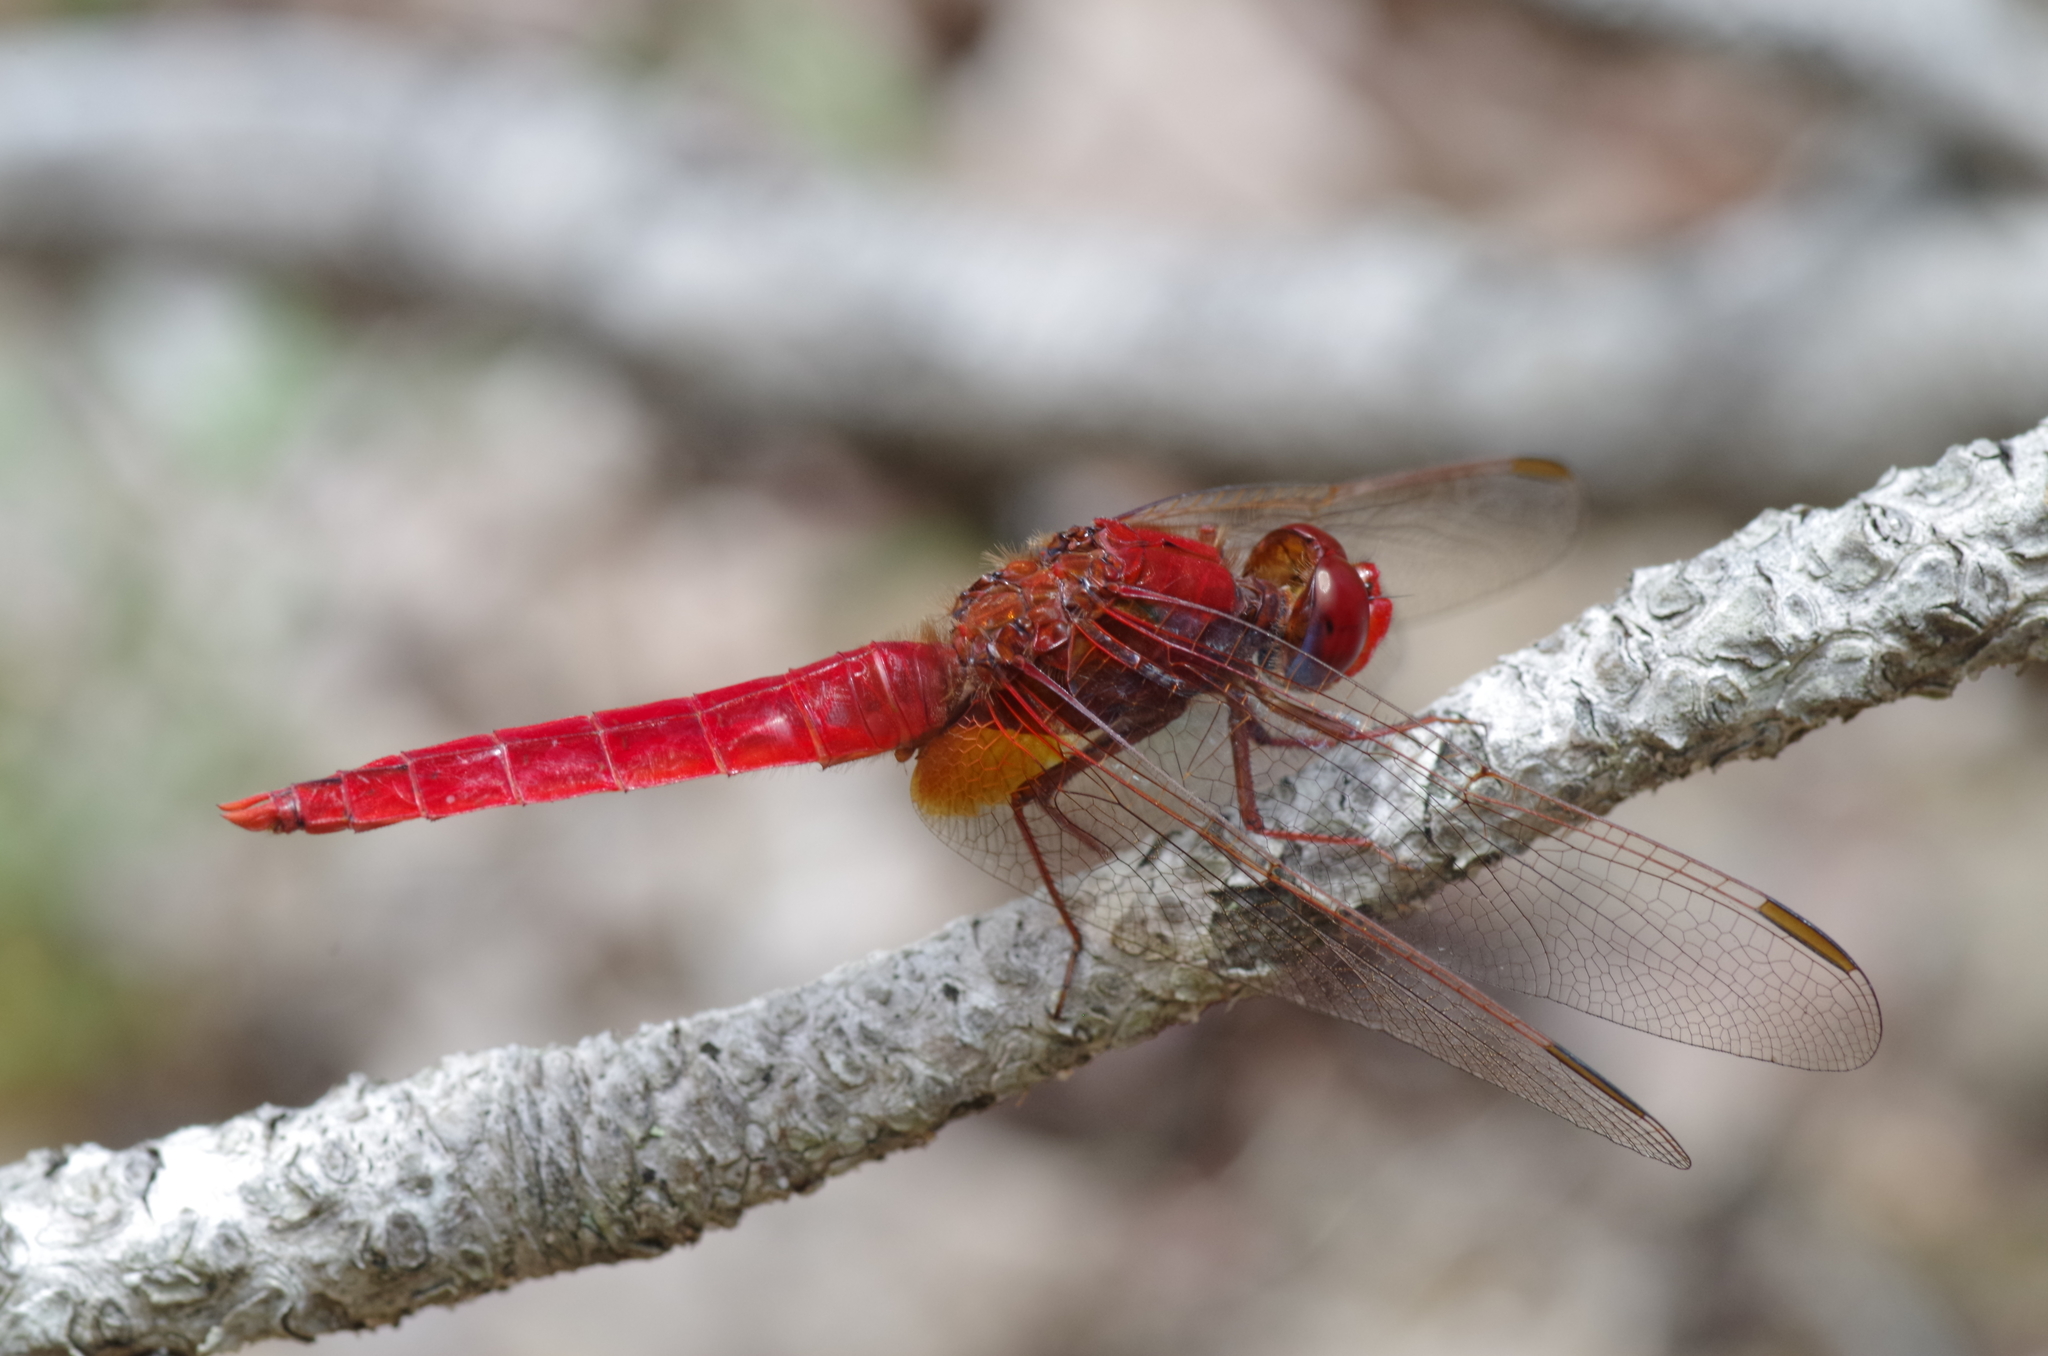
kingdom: Animalia
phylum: Arthropoda
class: Insecta
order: Odonata
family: Libellulidae
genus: Crocothemis
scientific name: Crocothemis erythraea
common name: Scarlet dragonfly
